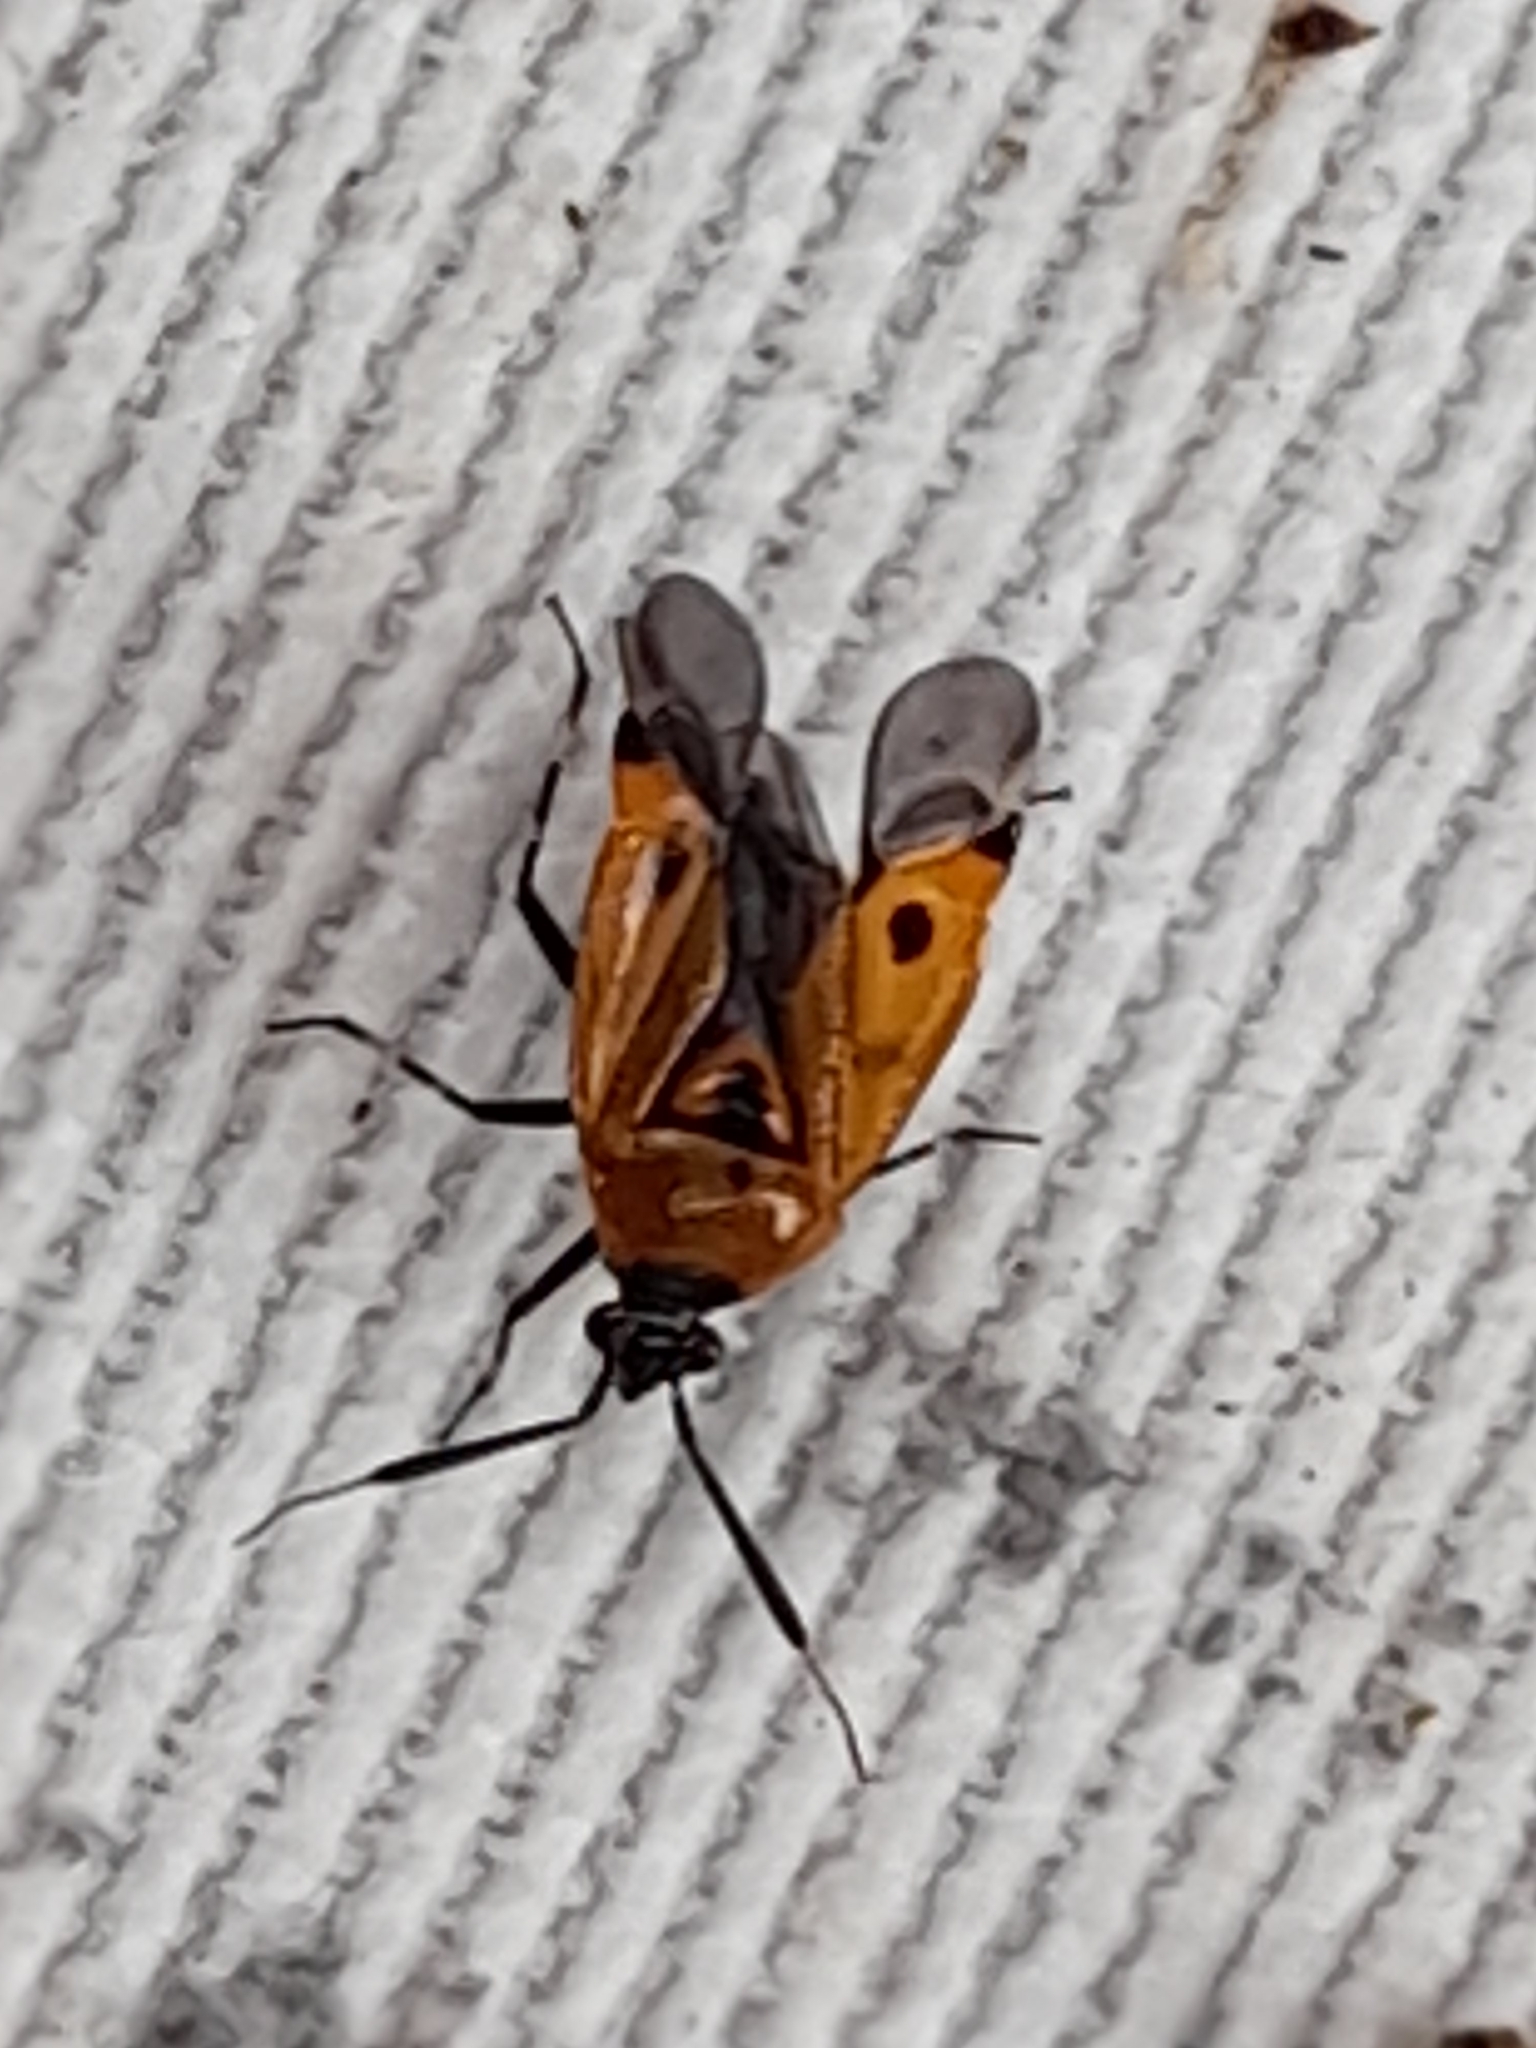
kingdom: Animalia
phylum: Arthropoda
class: Insecta
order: Hemiptera
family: Miridae
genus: Deraeocoris
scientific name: Deraeocoris punctum
